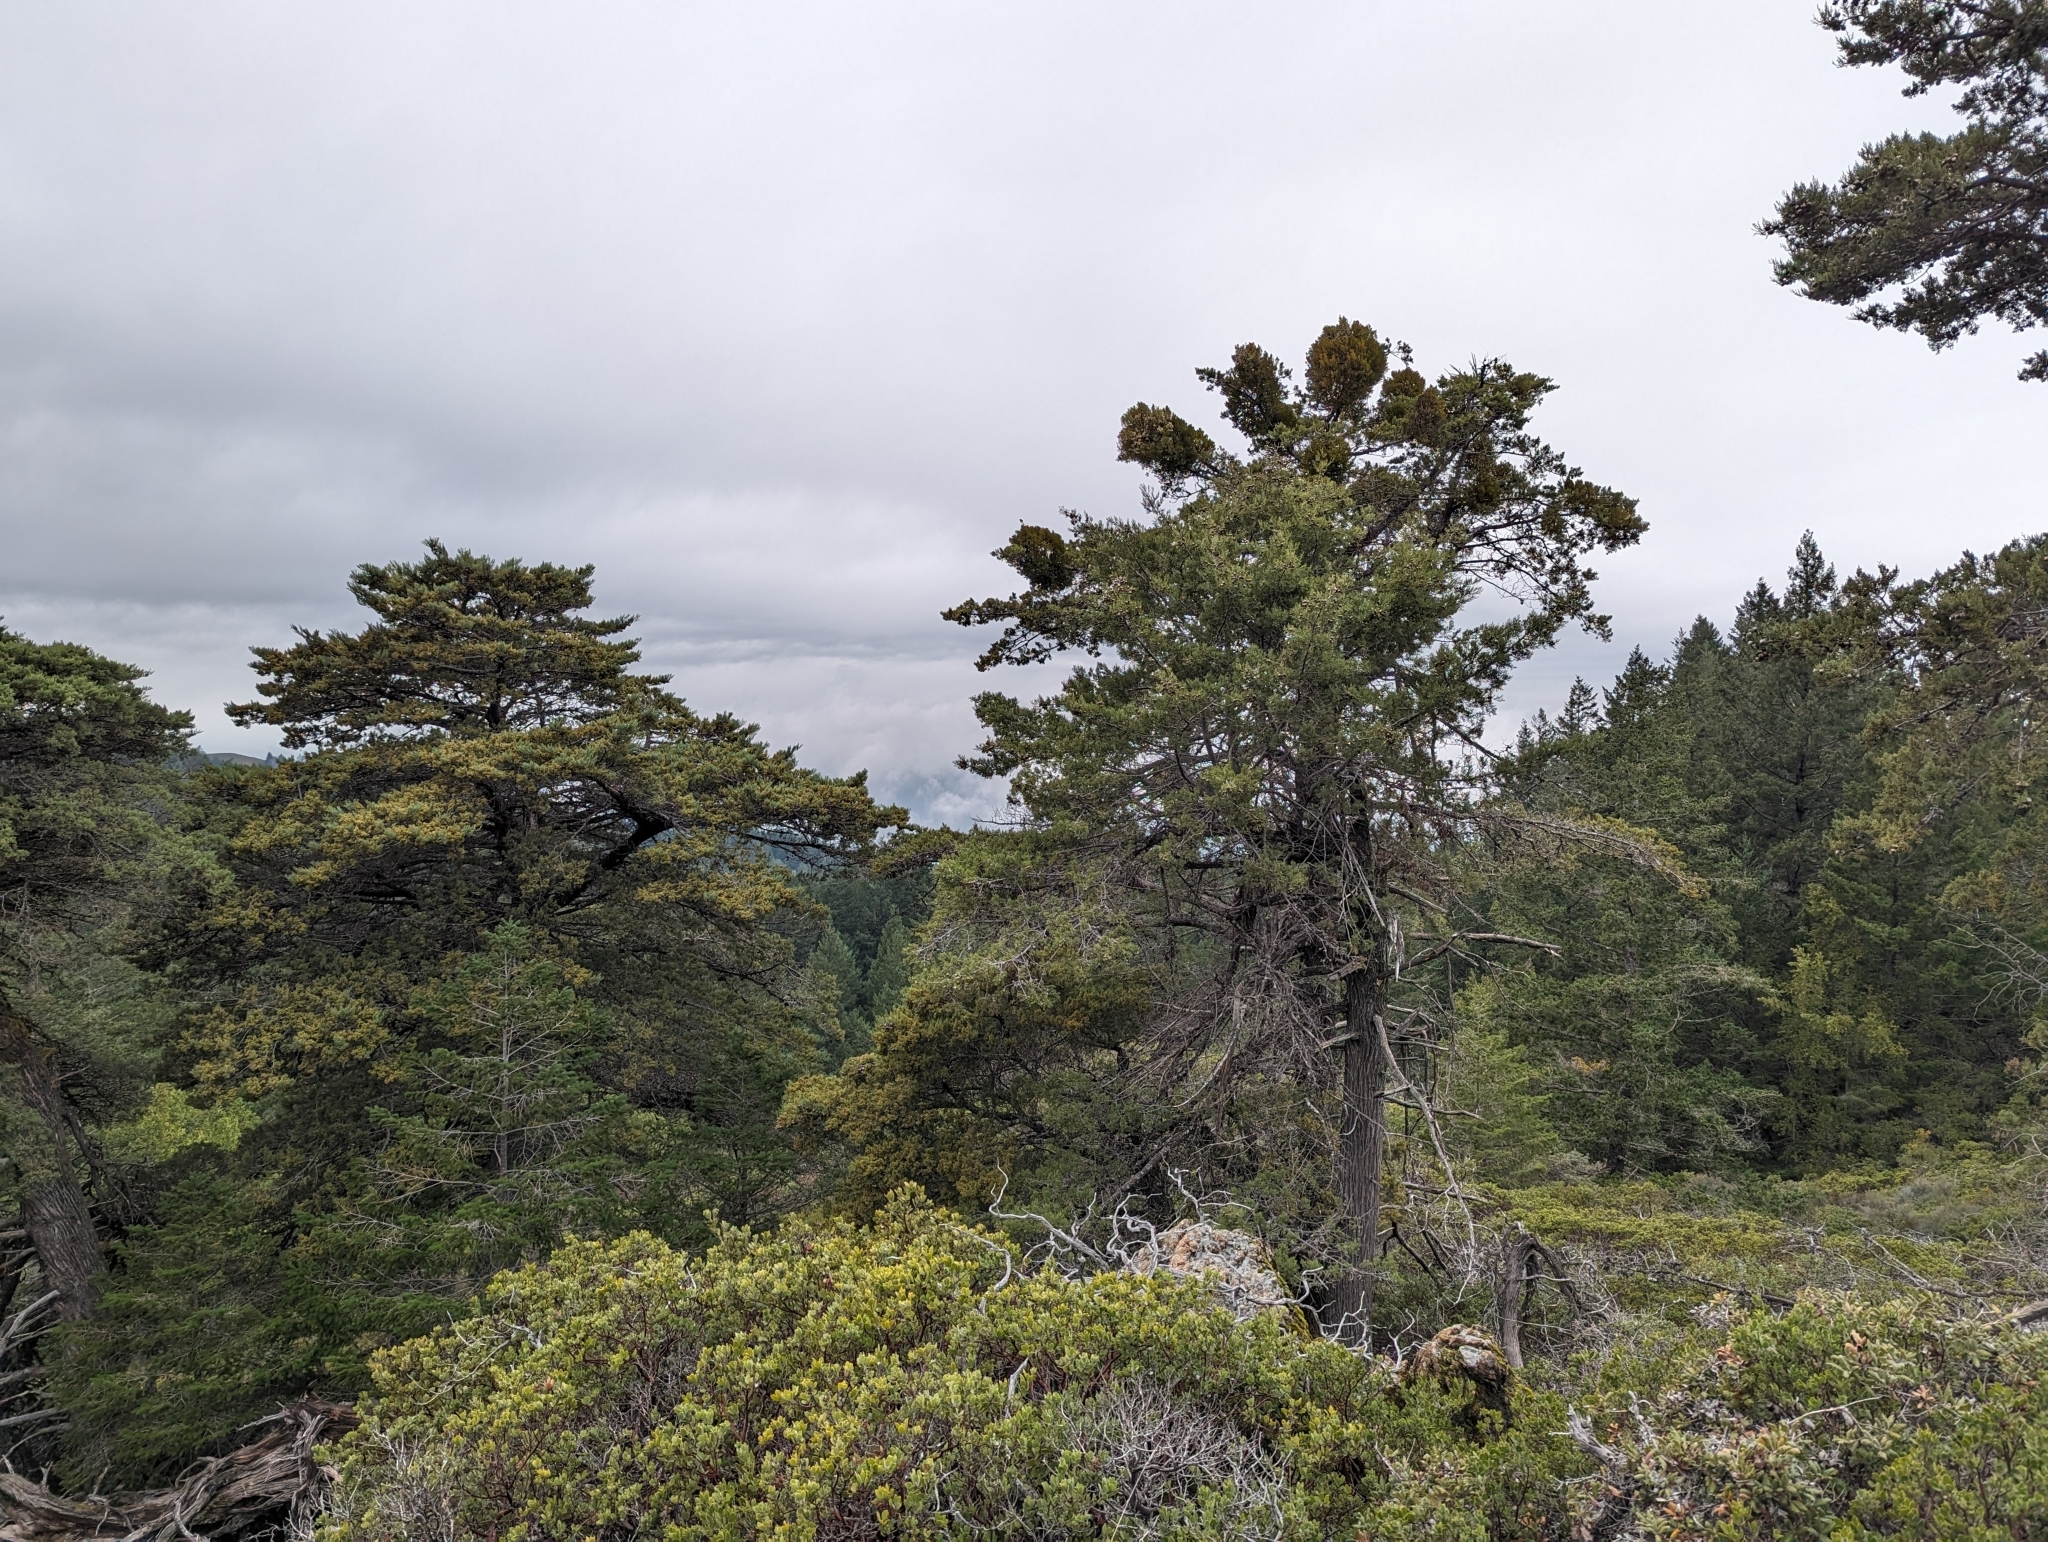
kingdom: Plantae
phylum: Tracheophyta
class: Pinopsida
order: Pinales
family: Cupressaceae
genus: Cupressus
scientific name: Cupressus sargentii
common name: Sargent cypress
